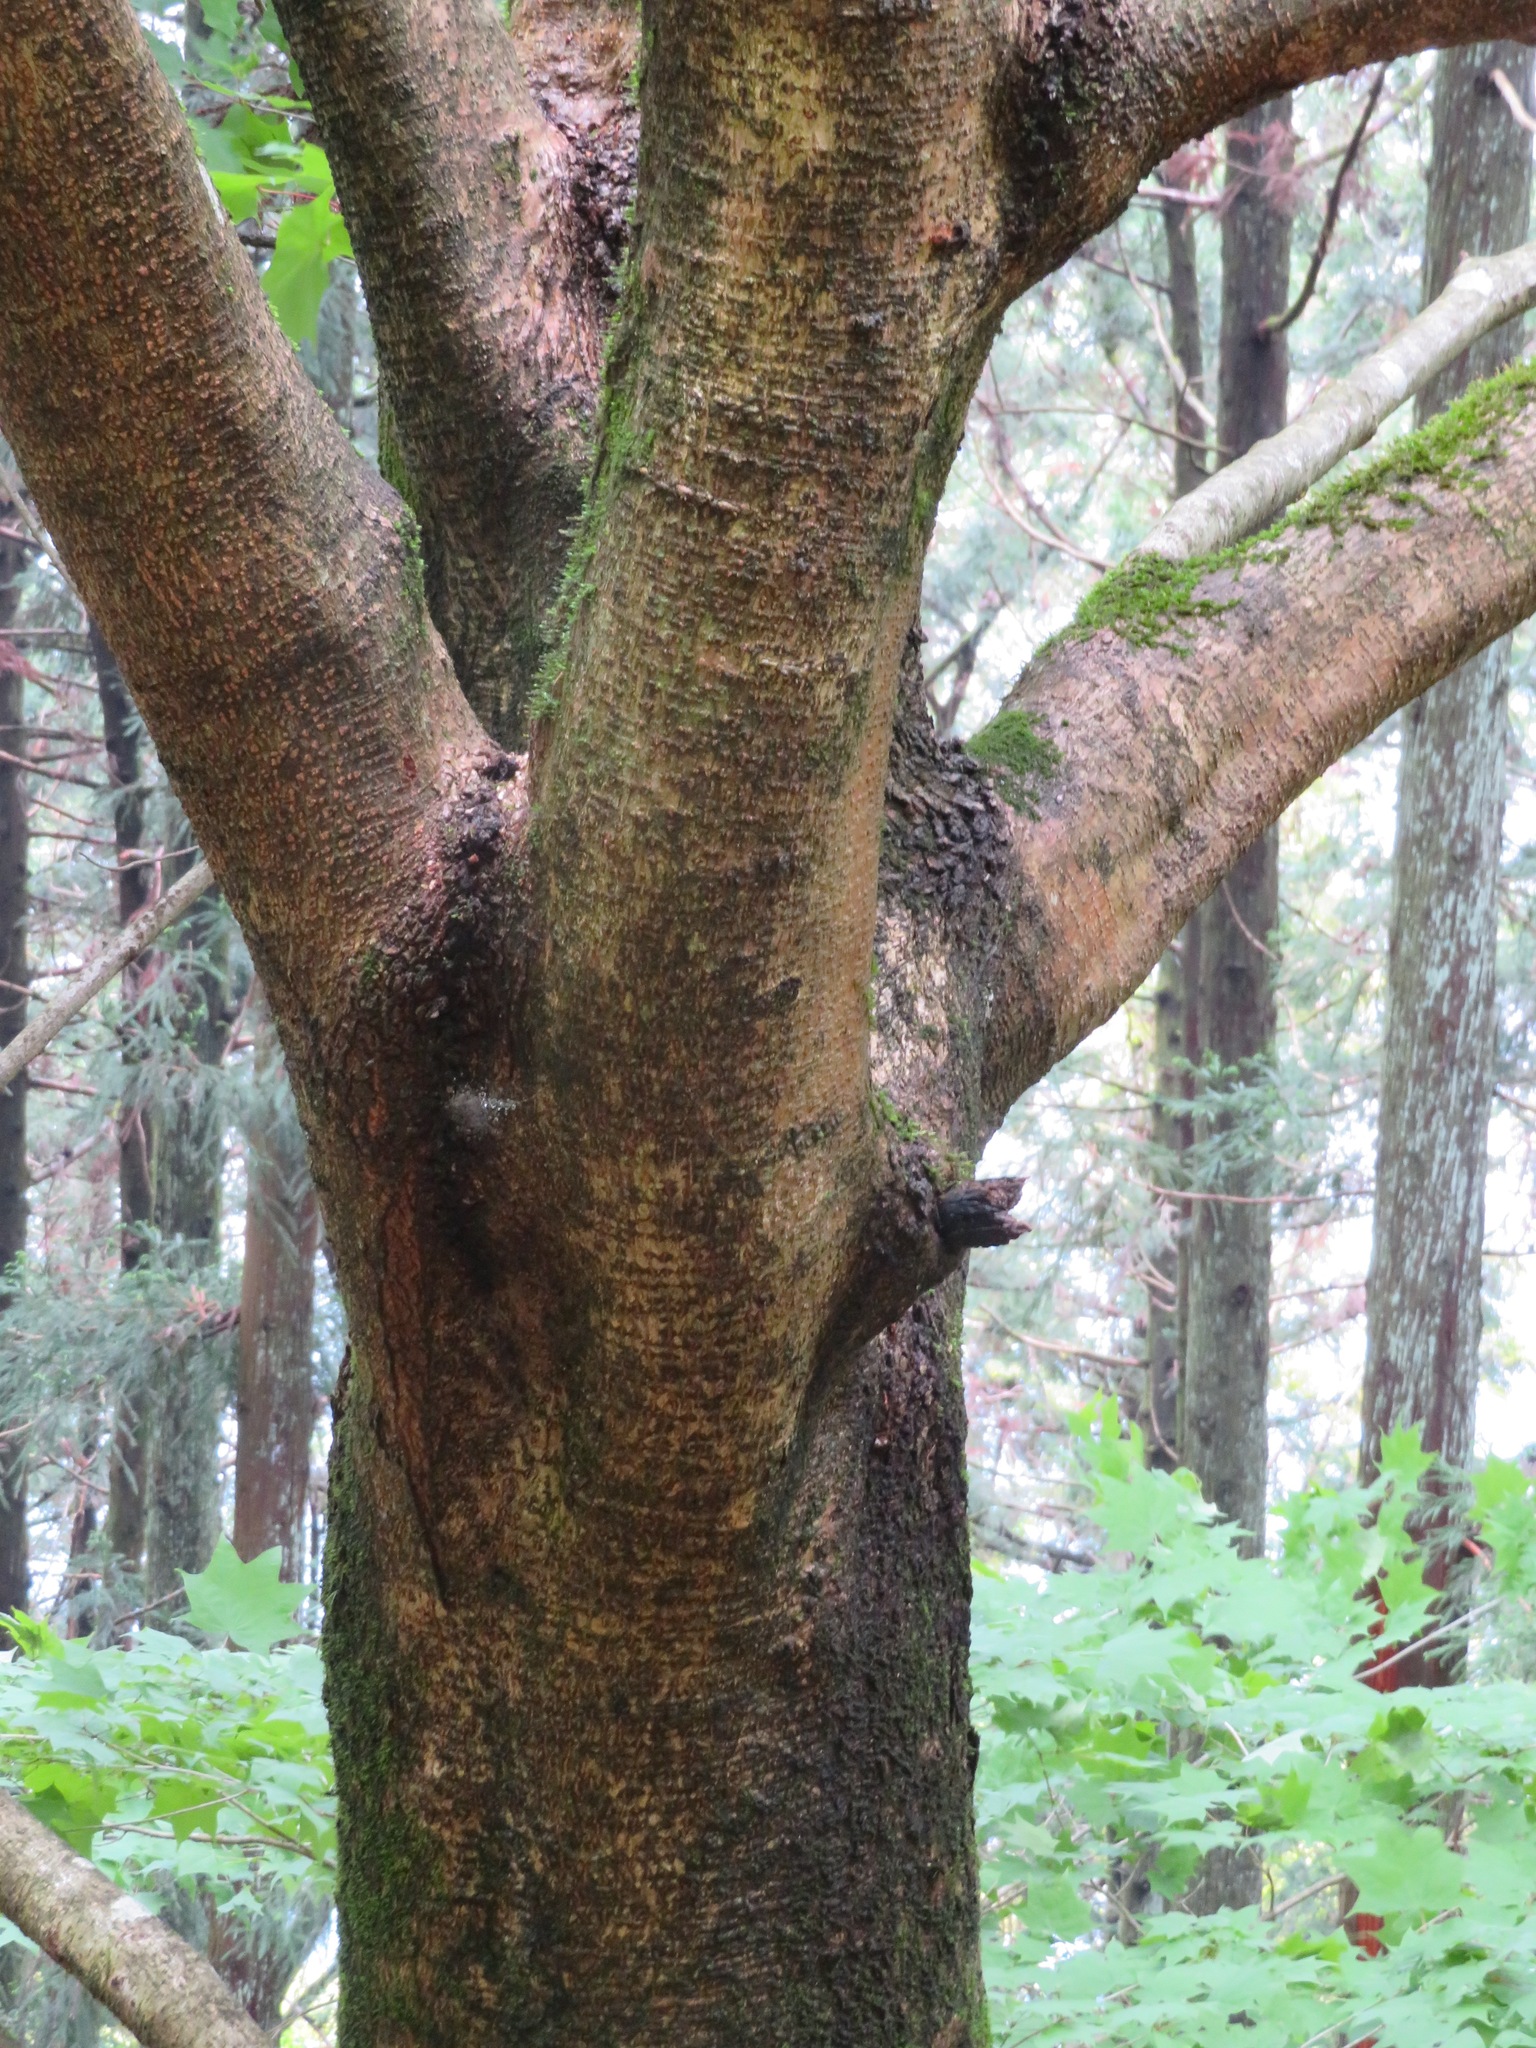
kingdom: Plantae
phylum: Tracheophyta
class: Magnoliopsida
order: Sapindales
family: Sapindaceae
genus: Acer
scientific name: Acer pictum
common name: The painted maple
